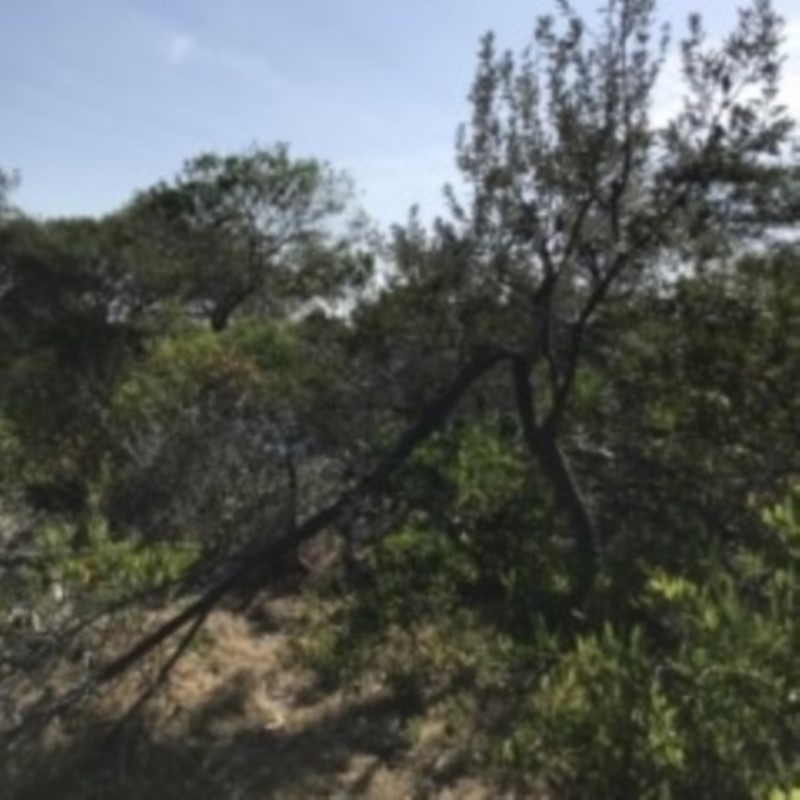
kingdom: Plantae
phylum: Tracheophyta
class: Magnoliopsida
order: Proteales
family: Proteaceae
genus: Banksia
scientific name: Banksia integrifolia
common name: White-honeysuckle
